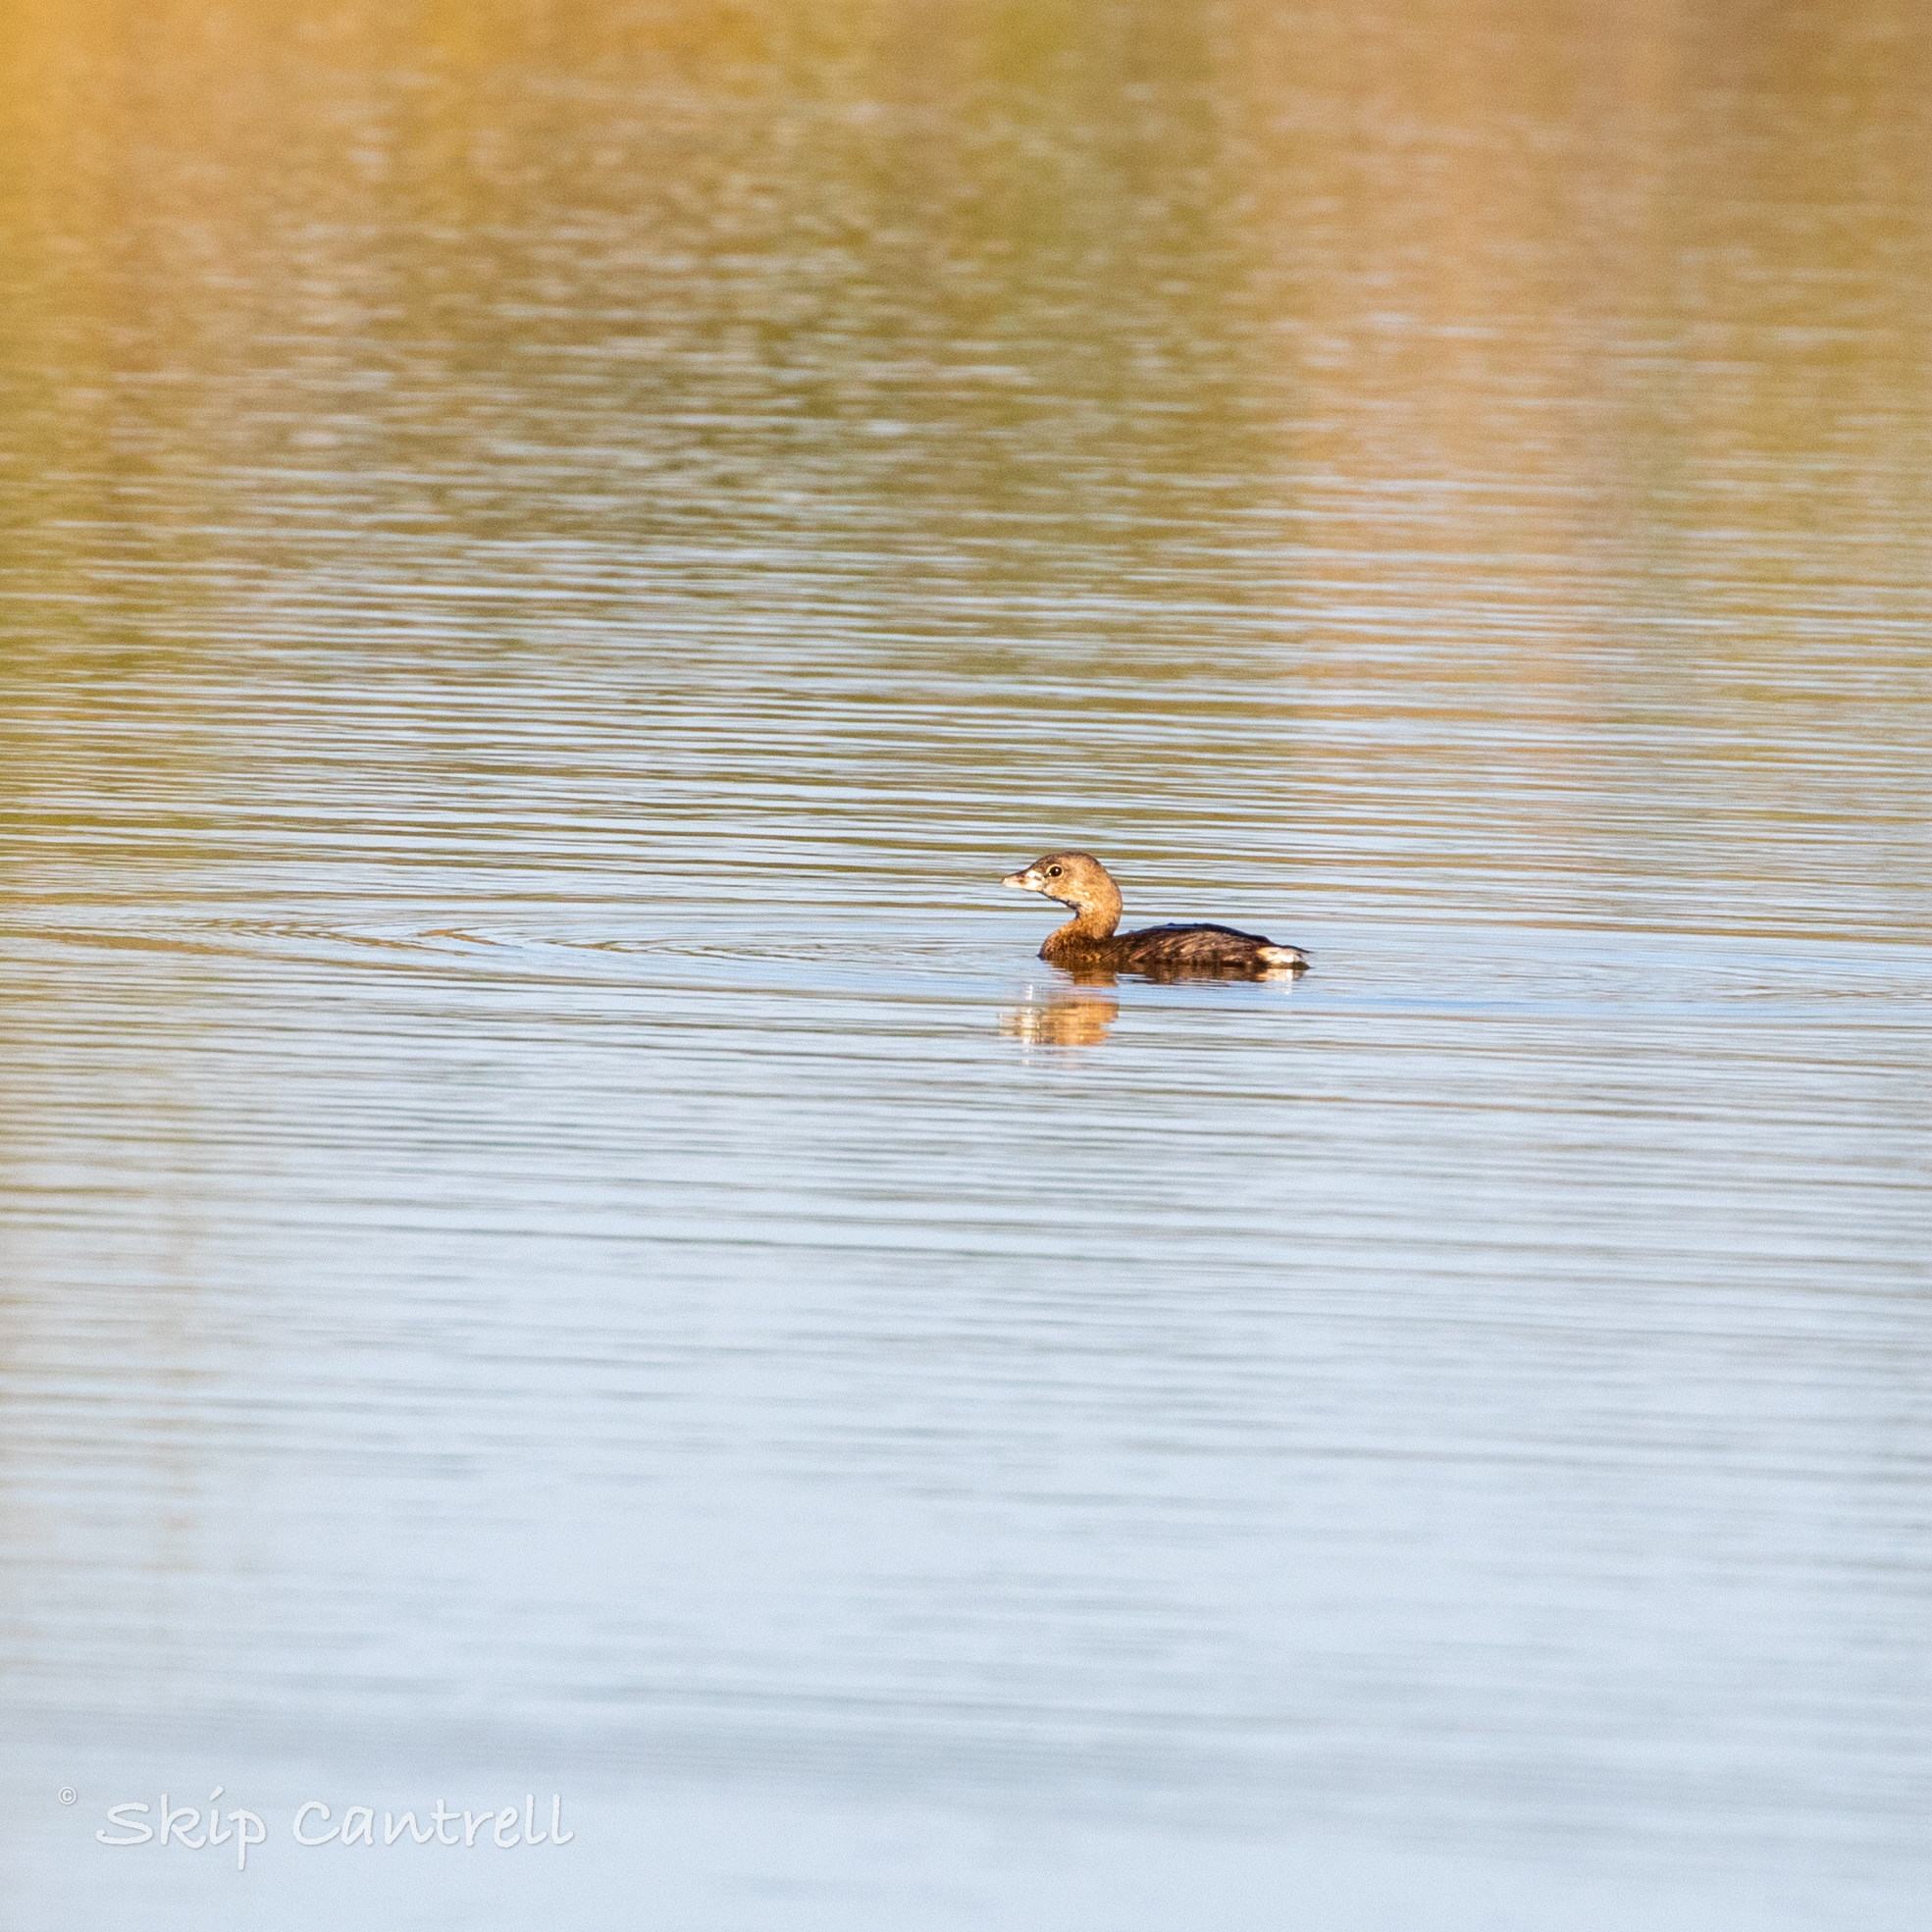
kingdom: Animalia
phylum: Chordata
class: Aves
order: Podicipediformes
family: Podicipedidae
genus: Podilymbus
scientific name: Podilymbus podiceps
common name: Pied-billed grebe
